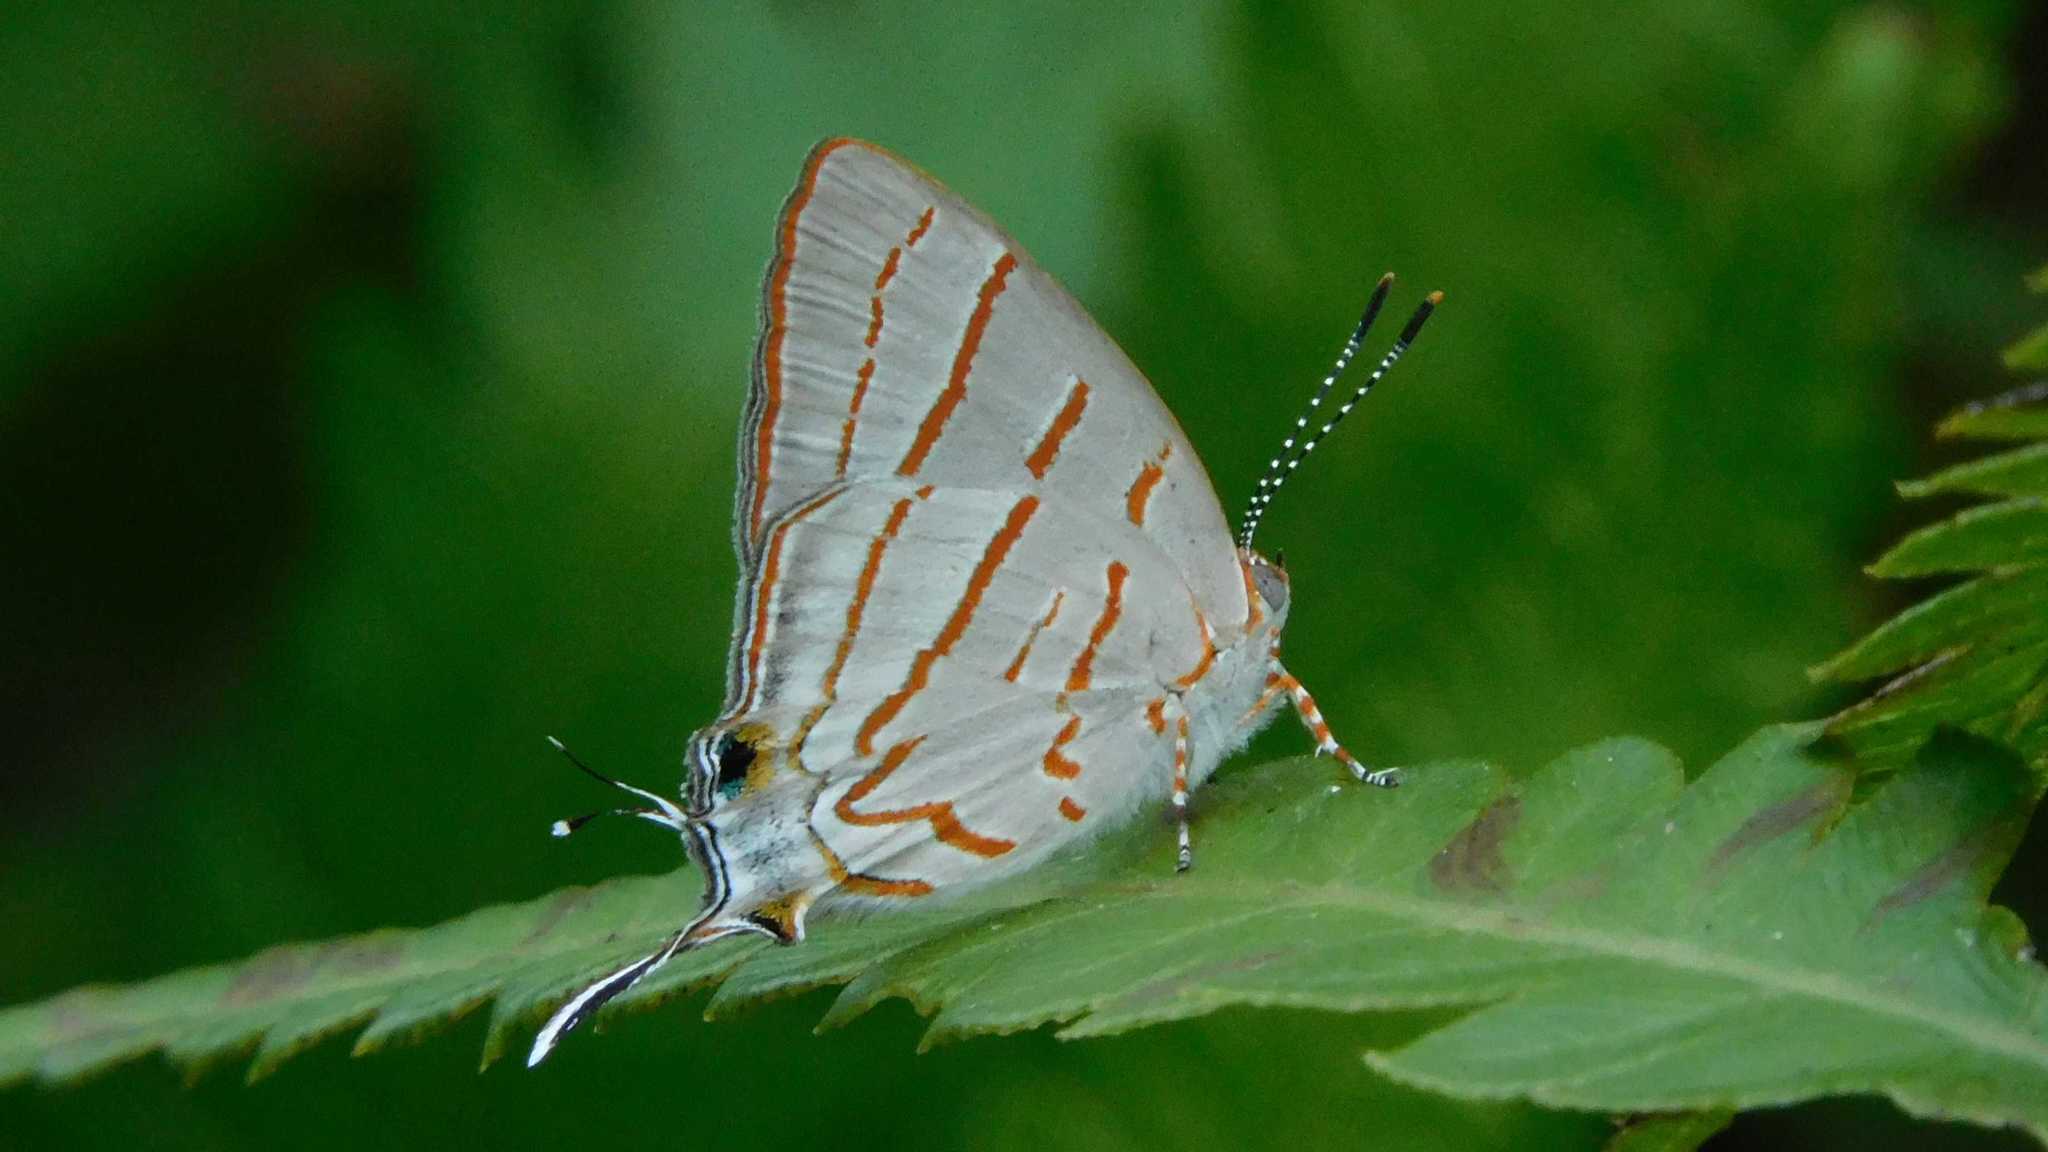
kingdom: Animalia
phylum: Arthropoda
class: Insecta
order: Lepidoptera
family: Lycaenidae
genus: Hemiolaus
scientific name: Hemiolaus caeculus
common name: Azure hairstreak
